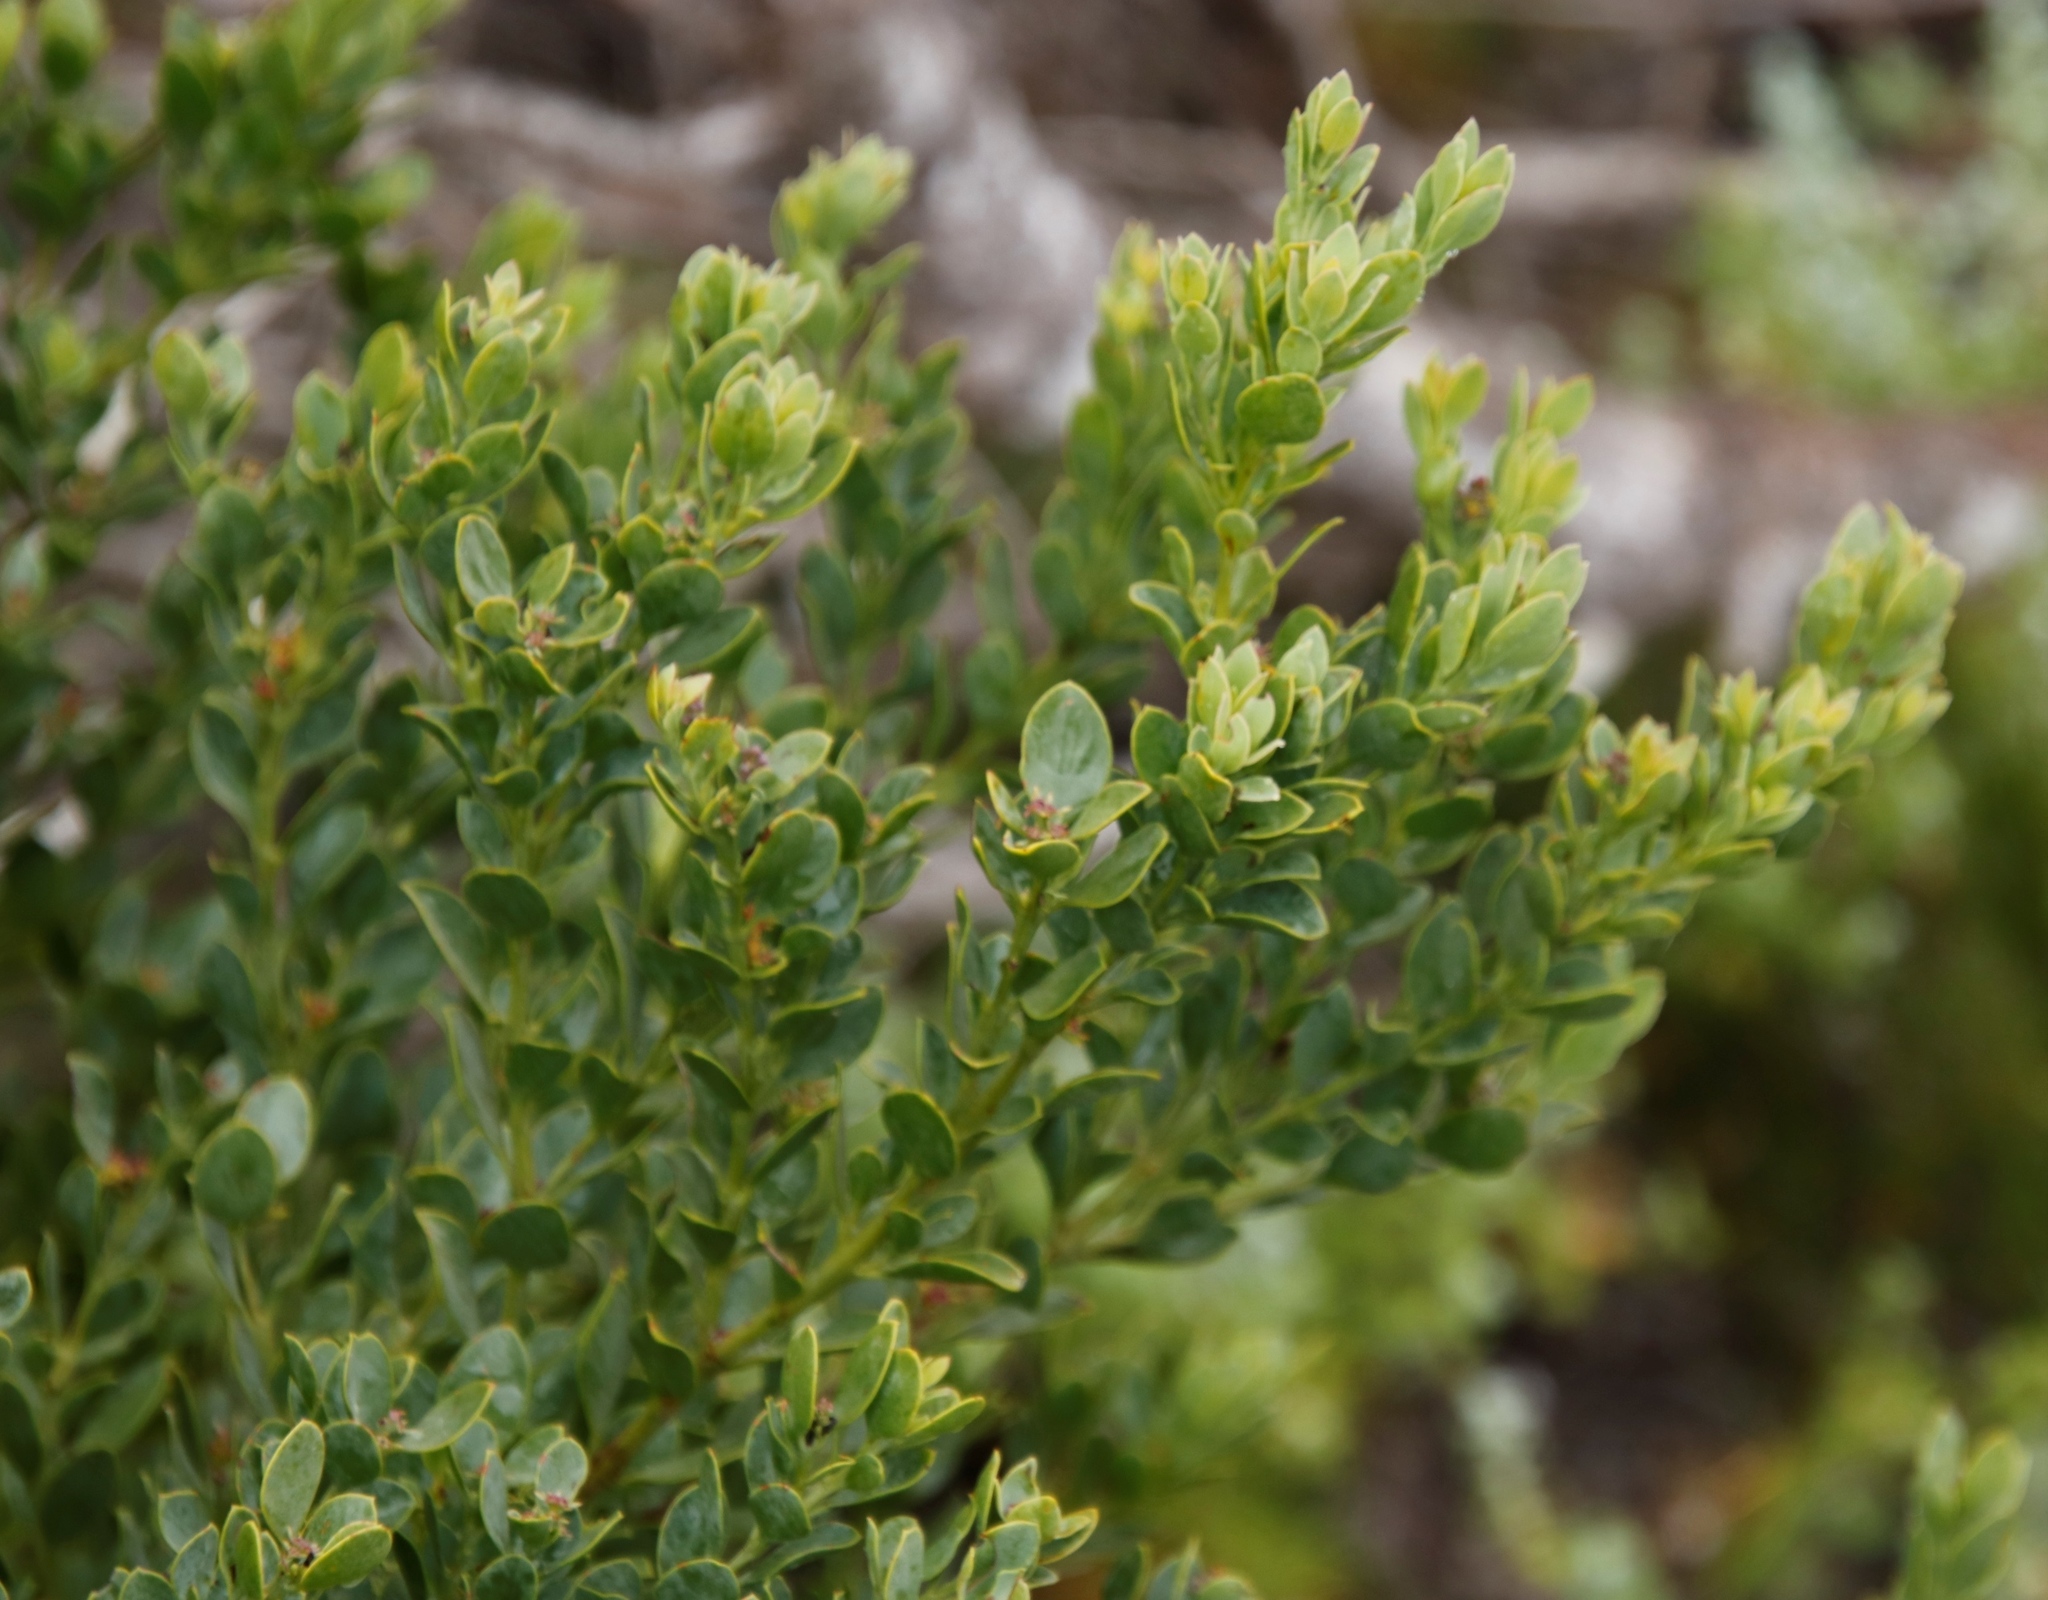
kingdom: Plantae
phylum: Tracheophyta
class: Magnoliopsida
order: Santalales
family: Santalaceae
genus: Osyris
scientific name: Osyris compressa
